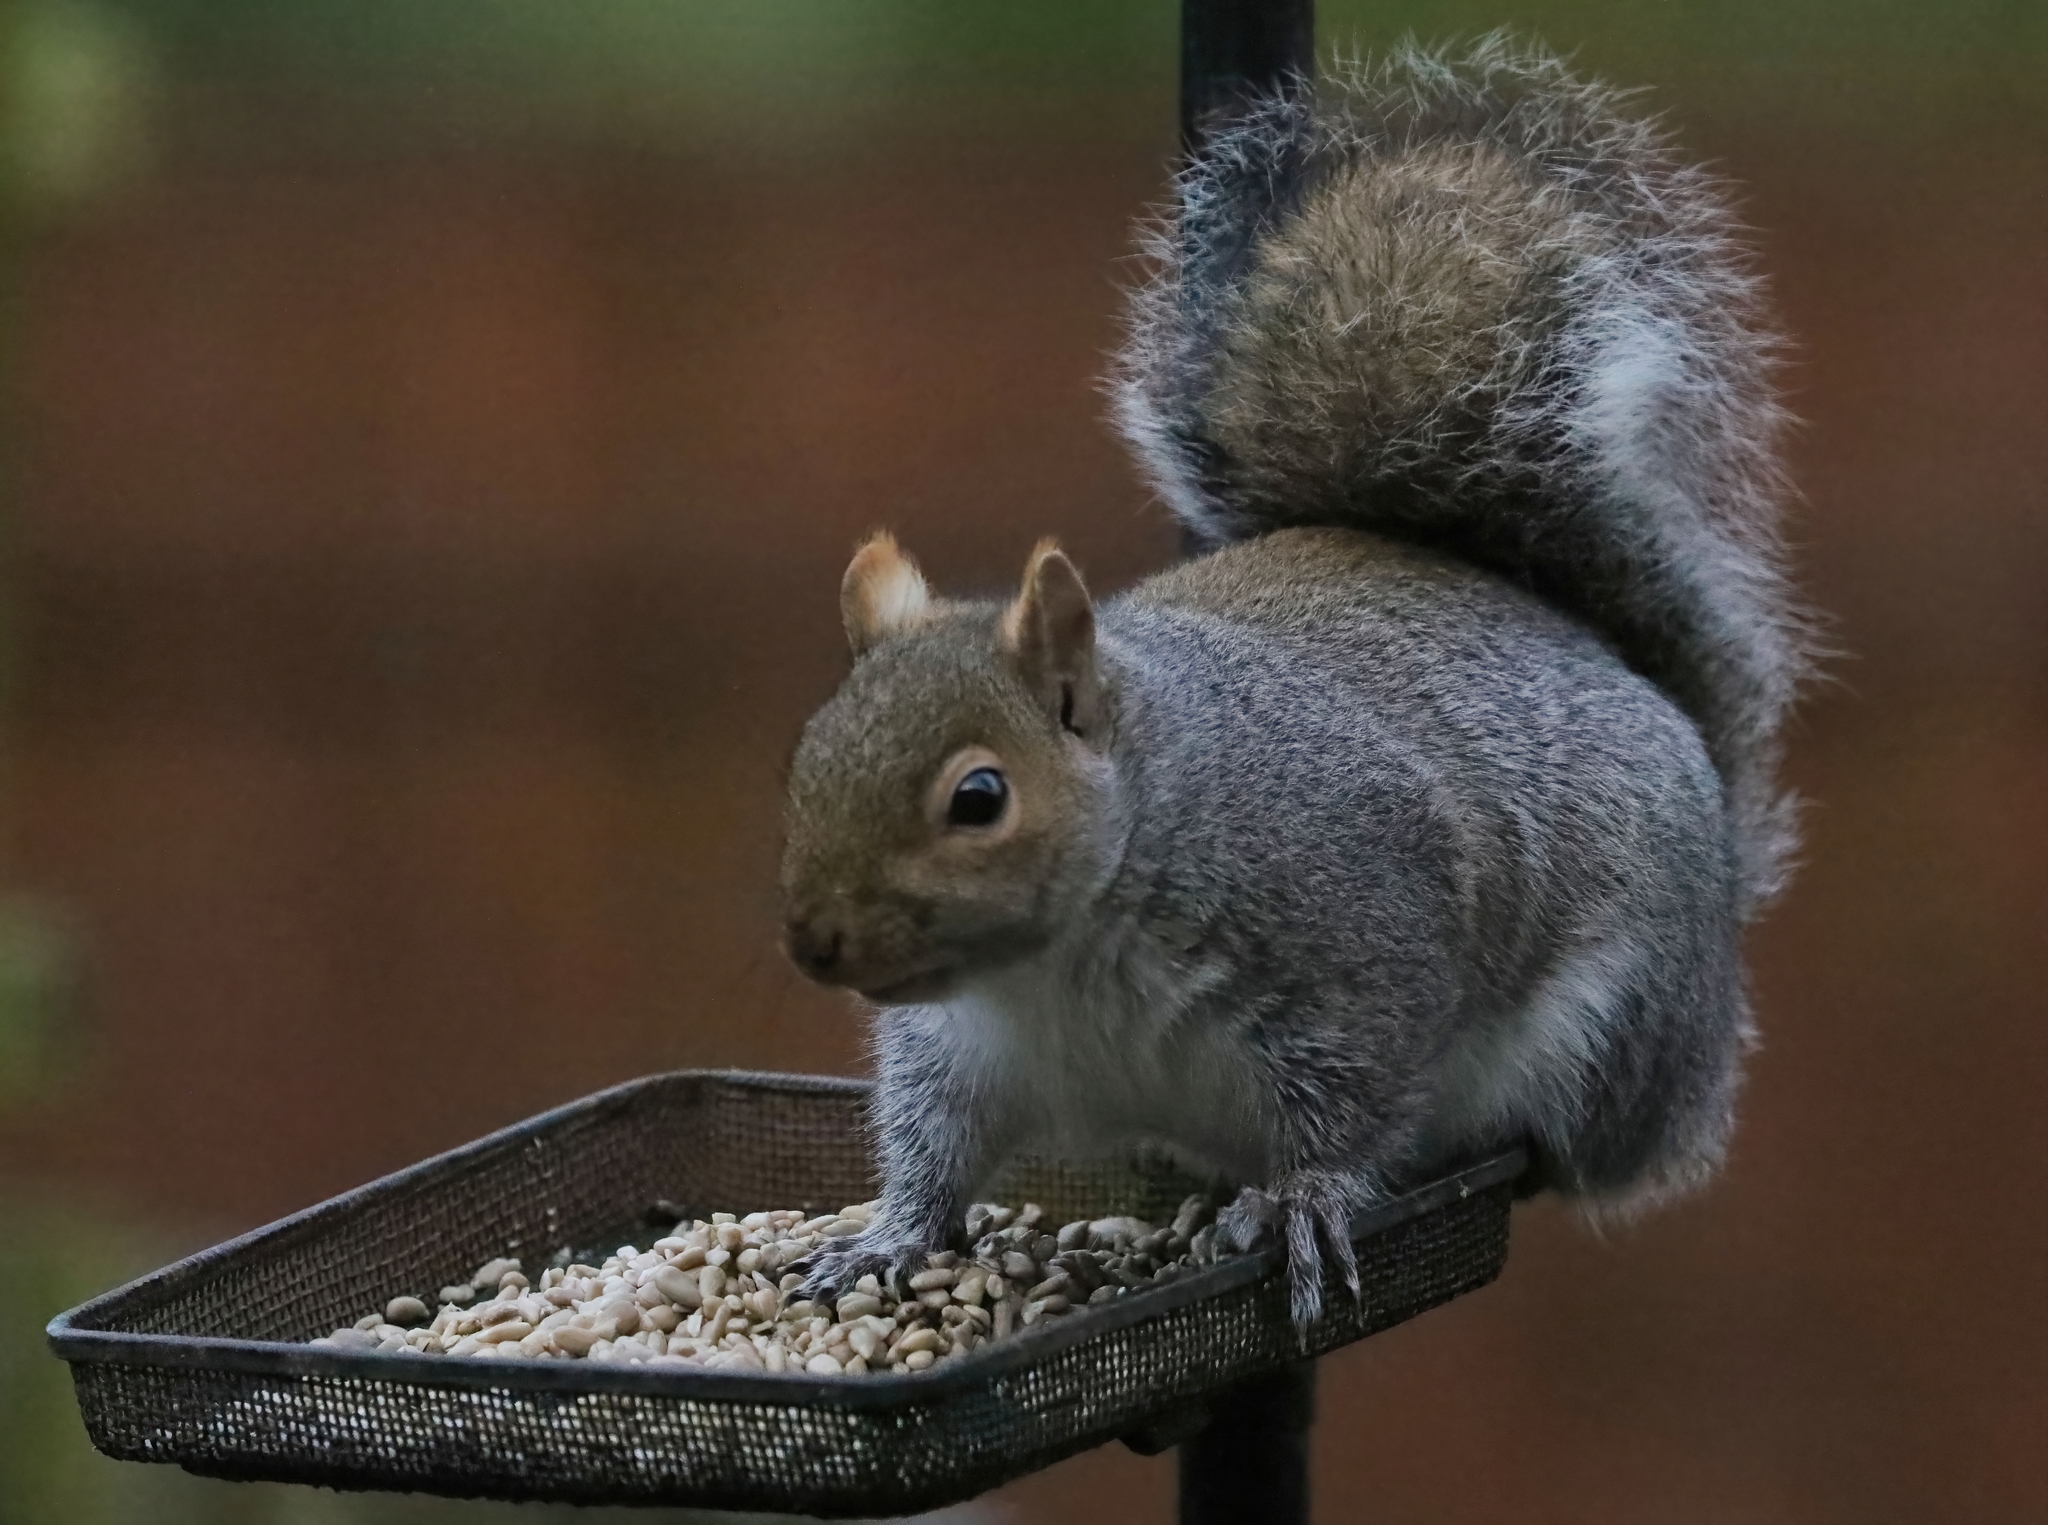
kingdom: Animalia
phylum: Chordata
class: Mammalia
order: Rodentia
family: Sciuridae
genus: Sciurus
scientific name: Sciurus carolinensis
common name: Eastern gray squirrel
